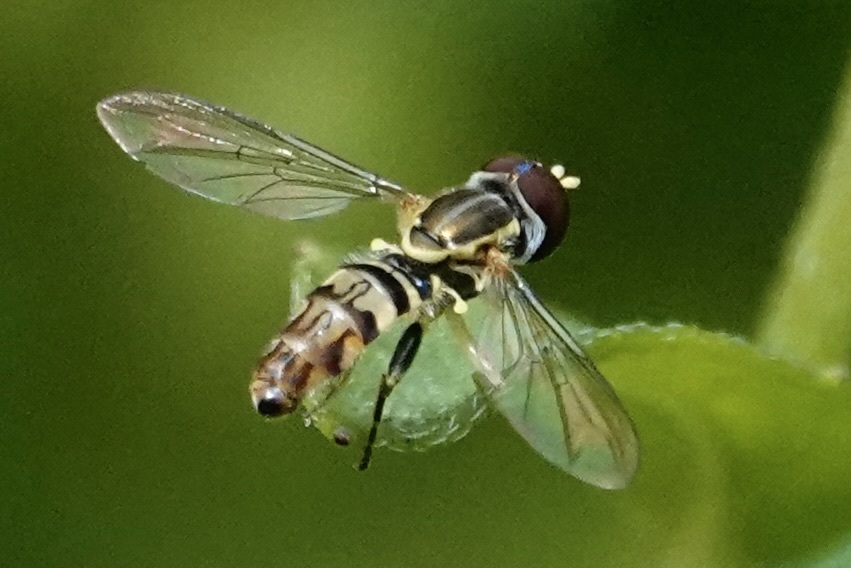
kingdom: Animalia
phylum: Arthropoda
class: Insecta
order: Diptera
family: Syrphidae
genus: Toxomerus
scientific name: Toxomerus geminatus
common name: Eastern calligrapher
